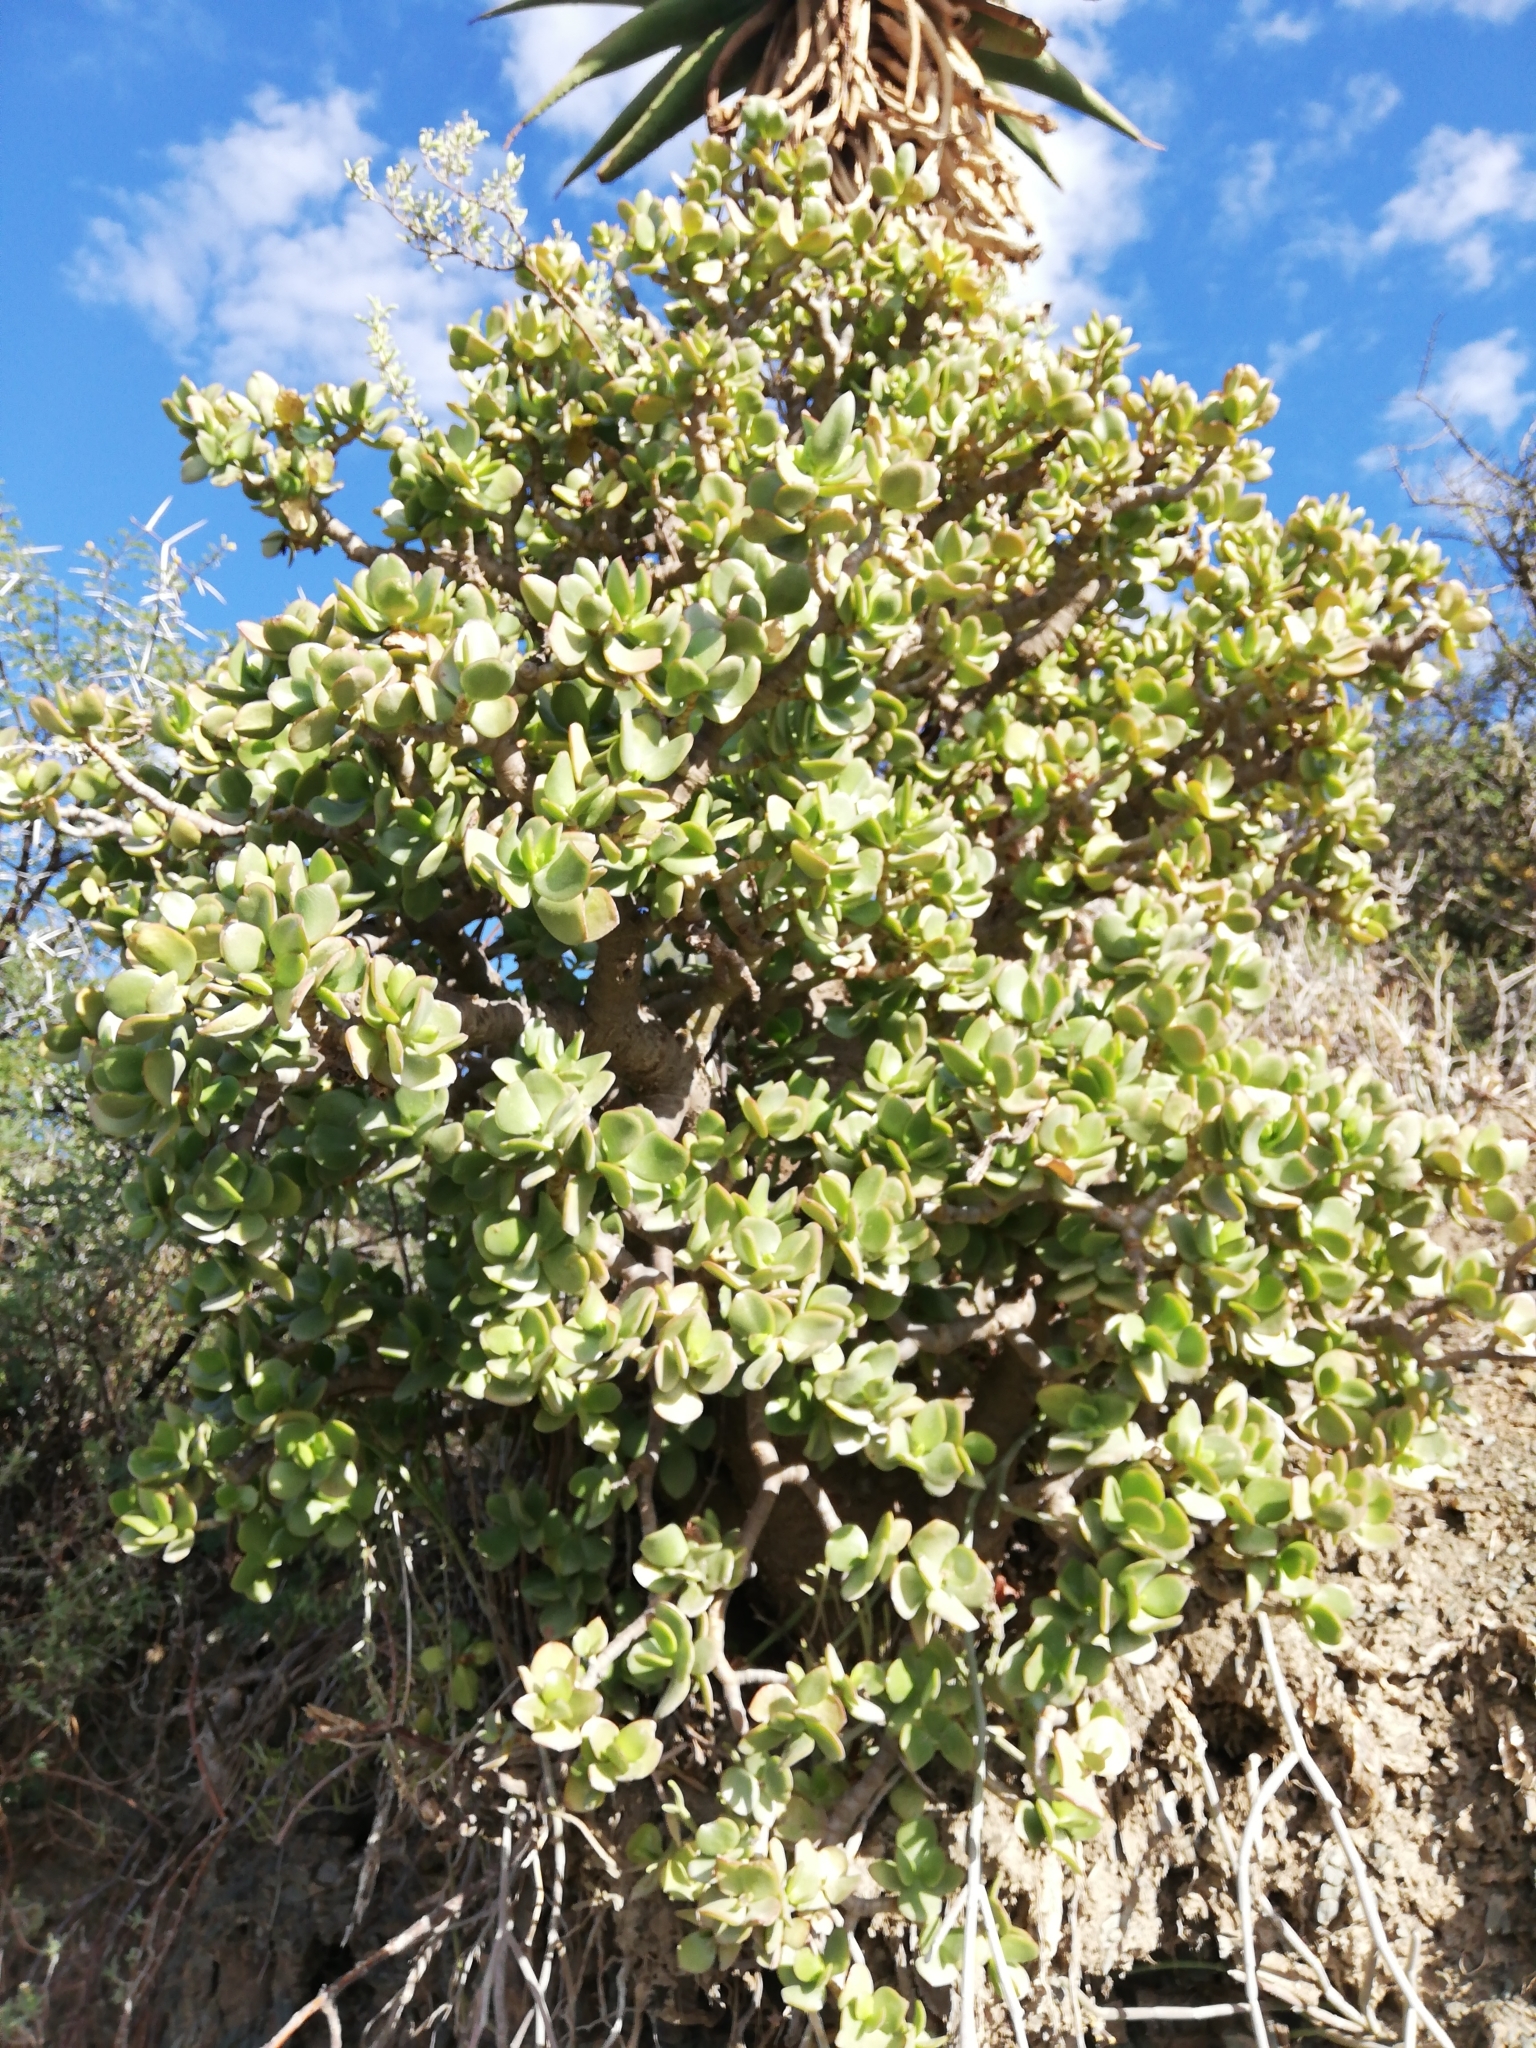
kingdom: Plantae
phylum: Tracheophyta
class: Magnoliopsida
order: Saxifragales
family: Crassulaceae
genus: Crassula
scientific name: Crassula ovata
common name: Jade plant
